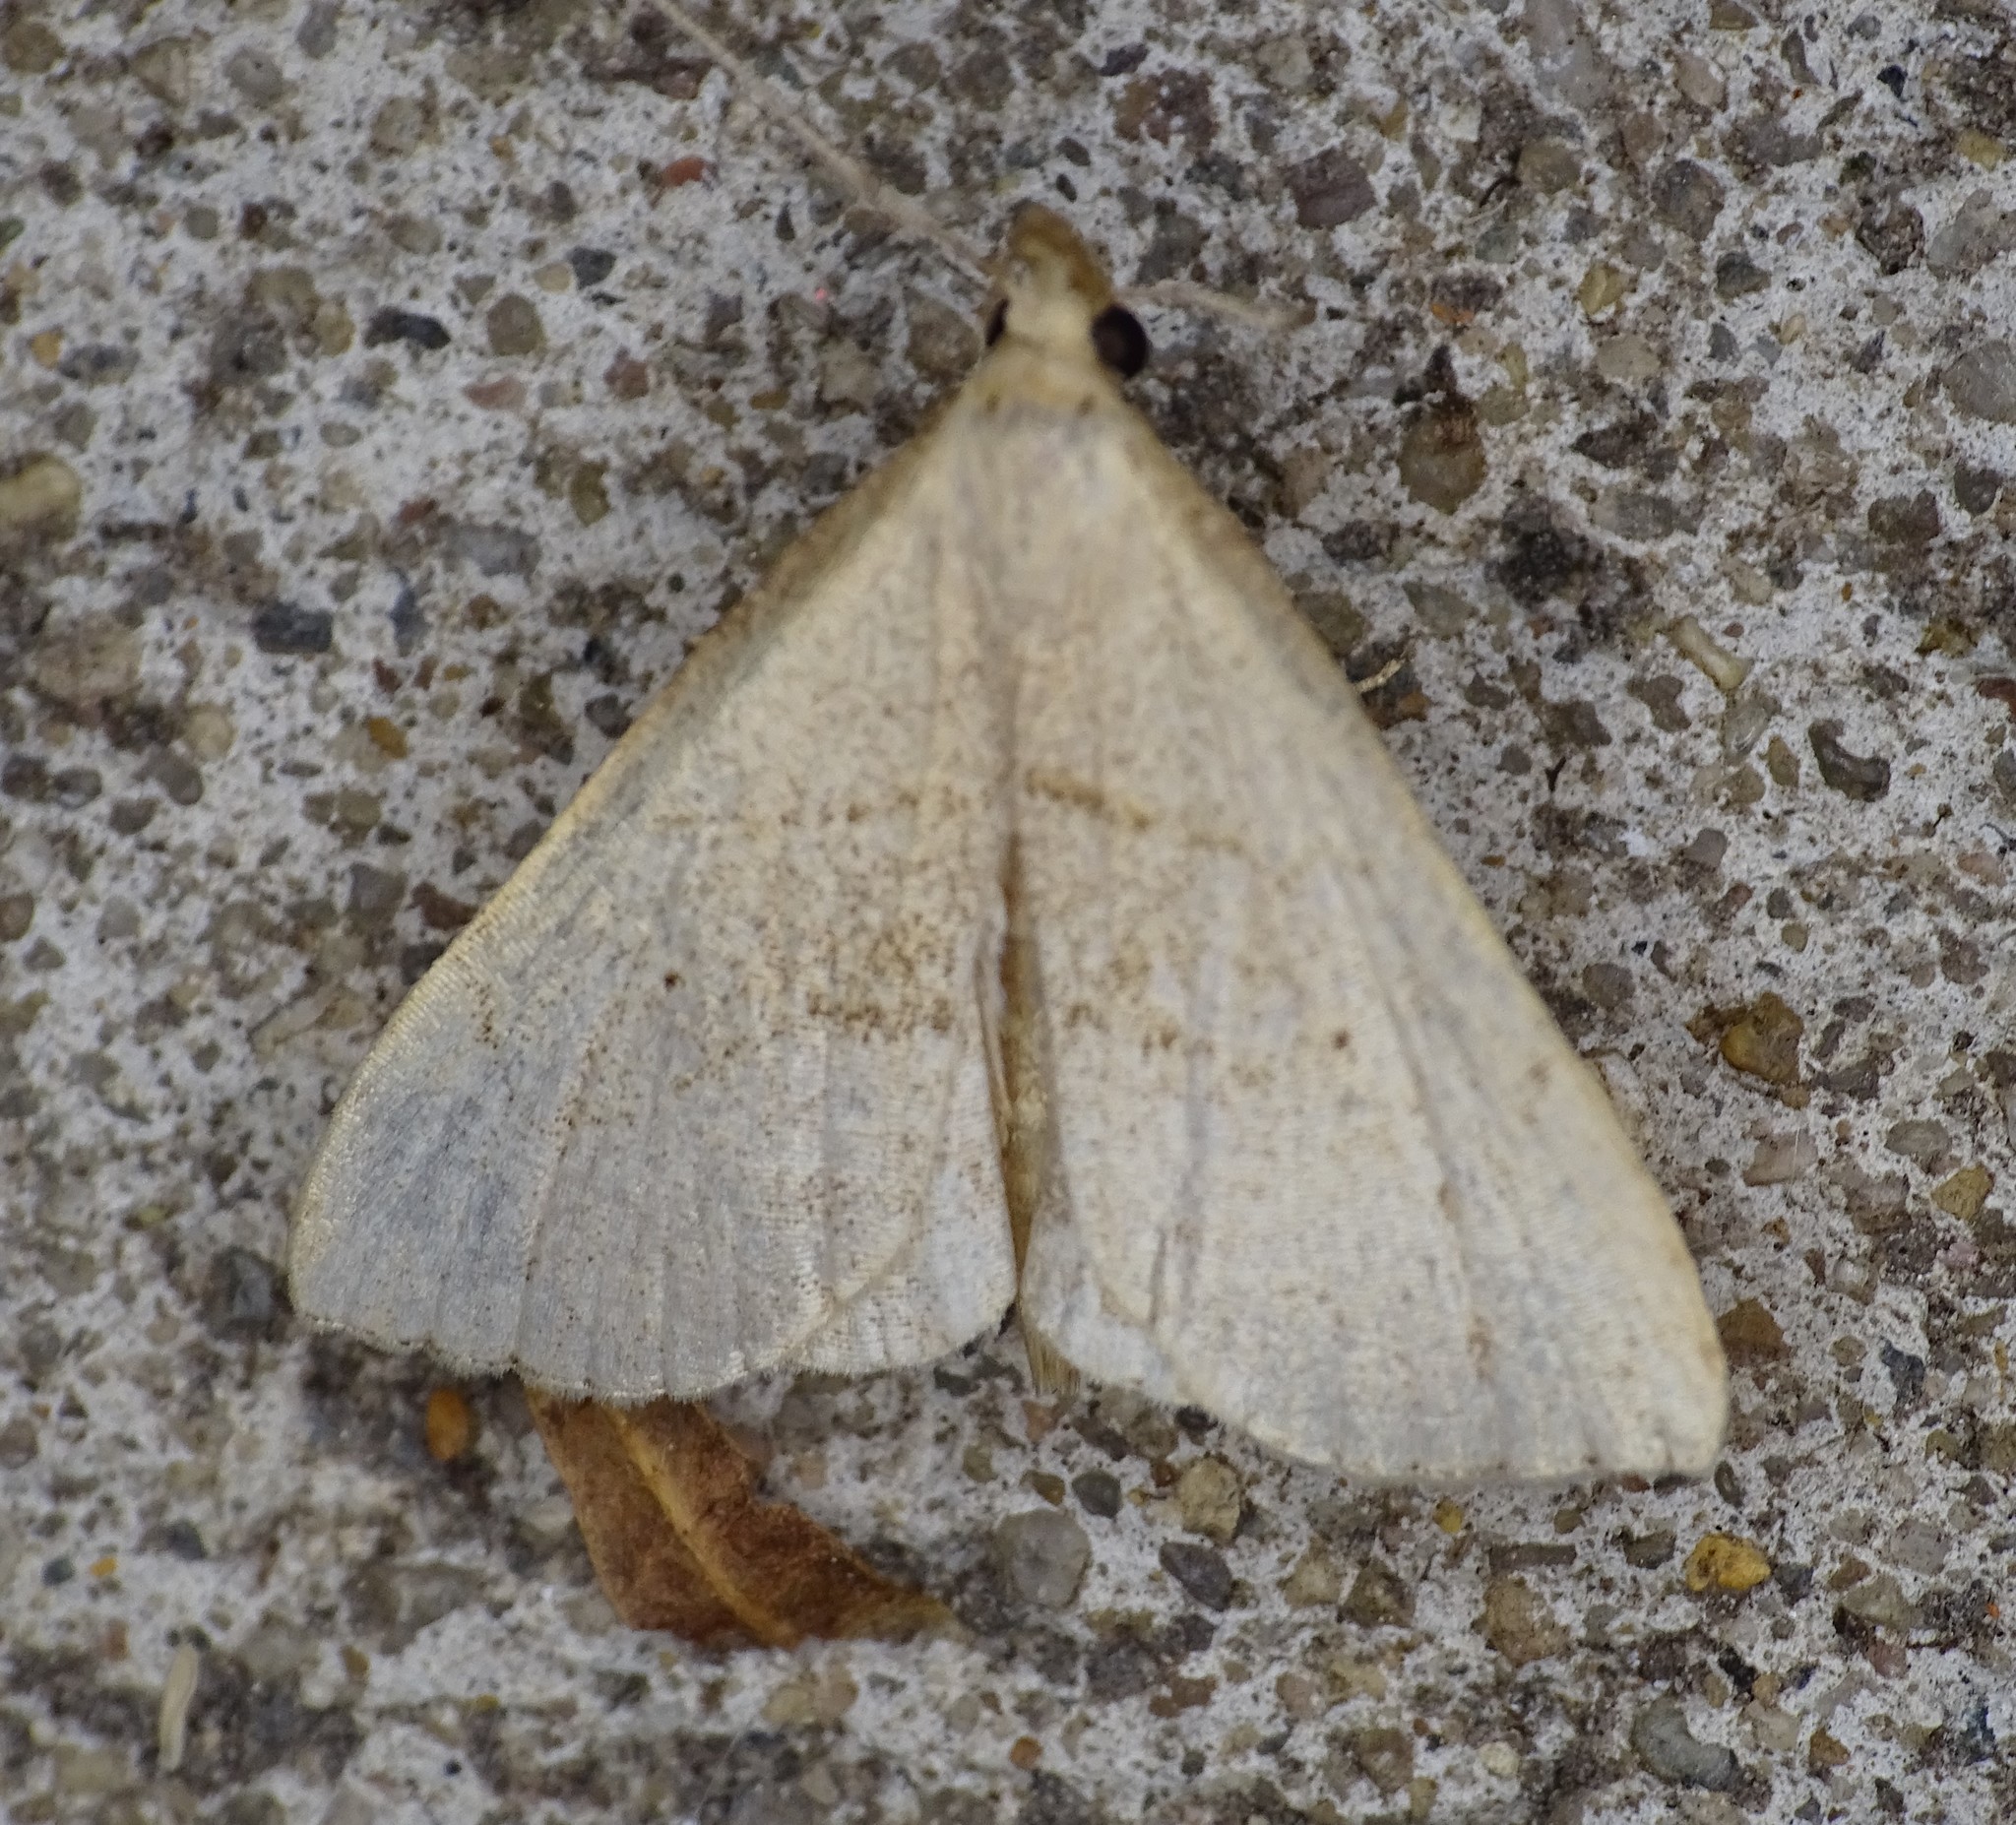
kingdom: Animalia
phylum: Arthropoda
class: Insecta
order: Lepidoptera
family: Erebidae
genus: Macrochilo
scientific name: Macrochilo litophora
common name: Brown-lined owlet
